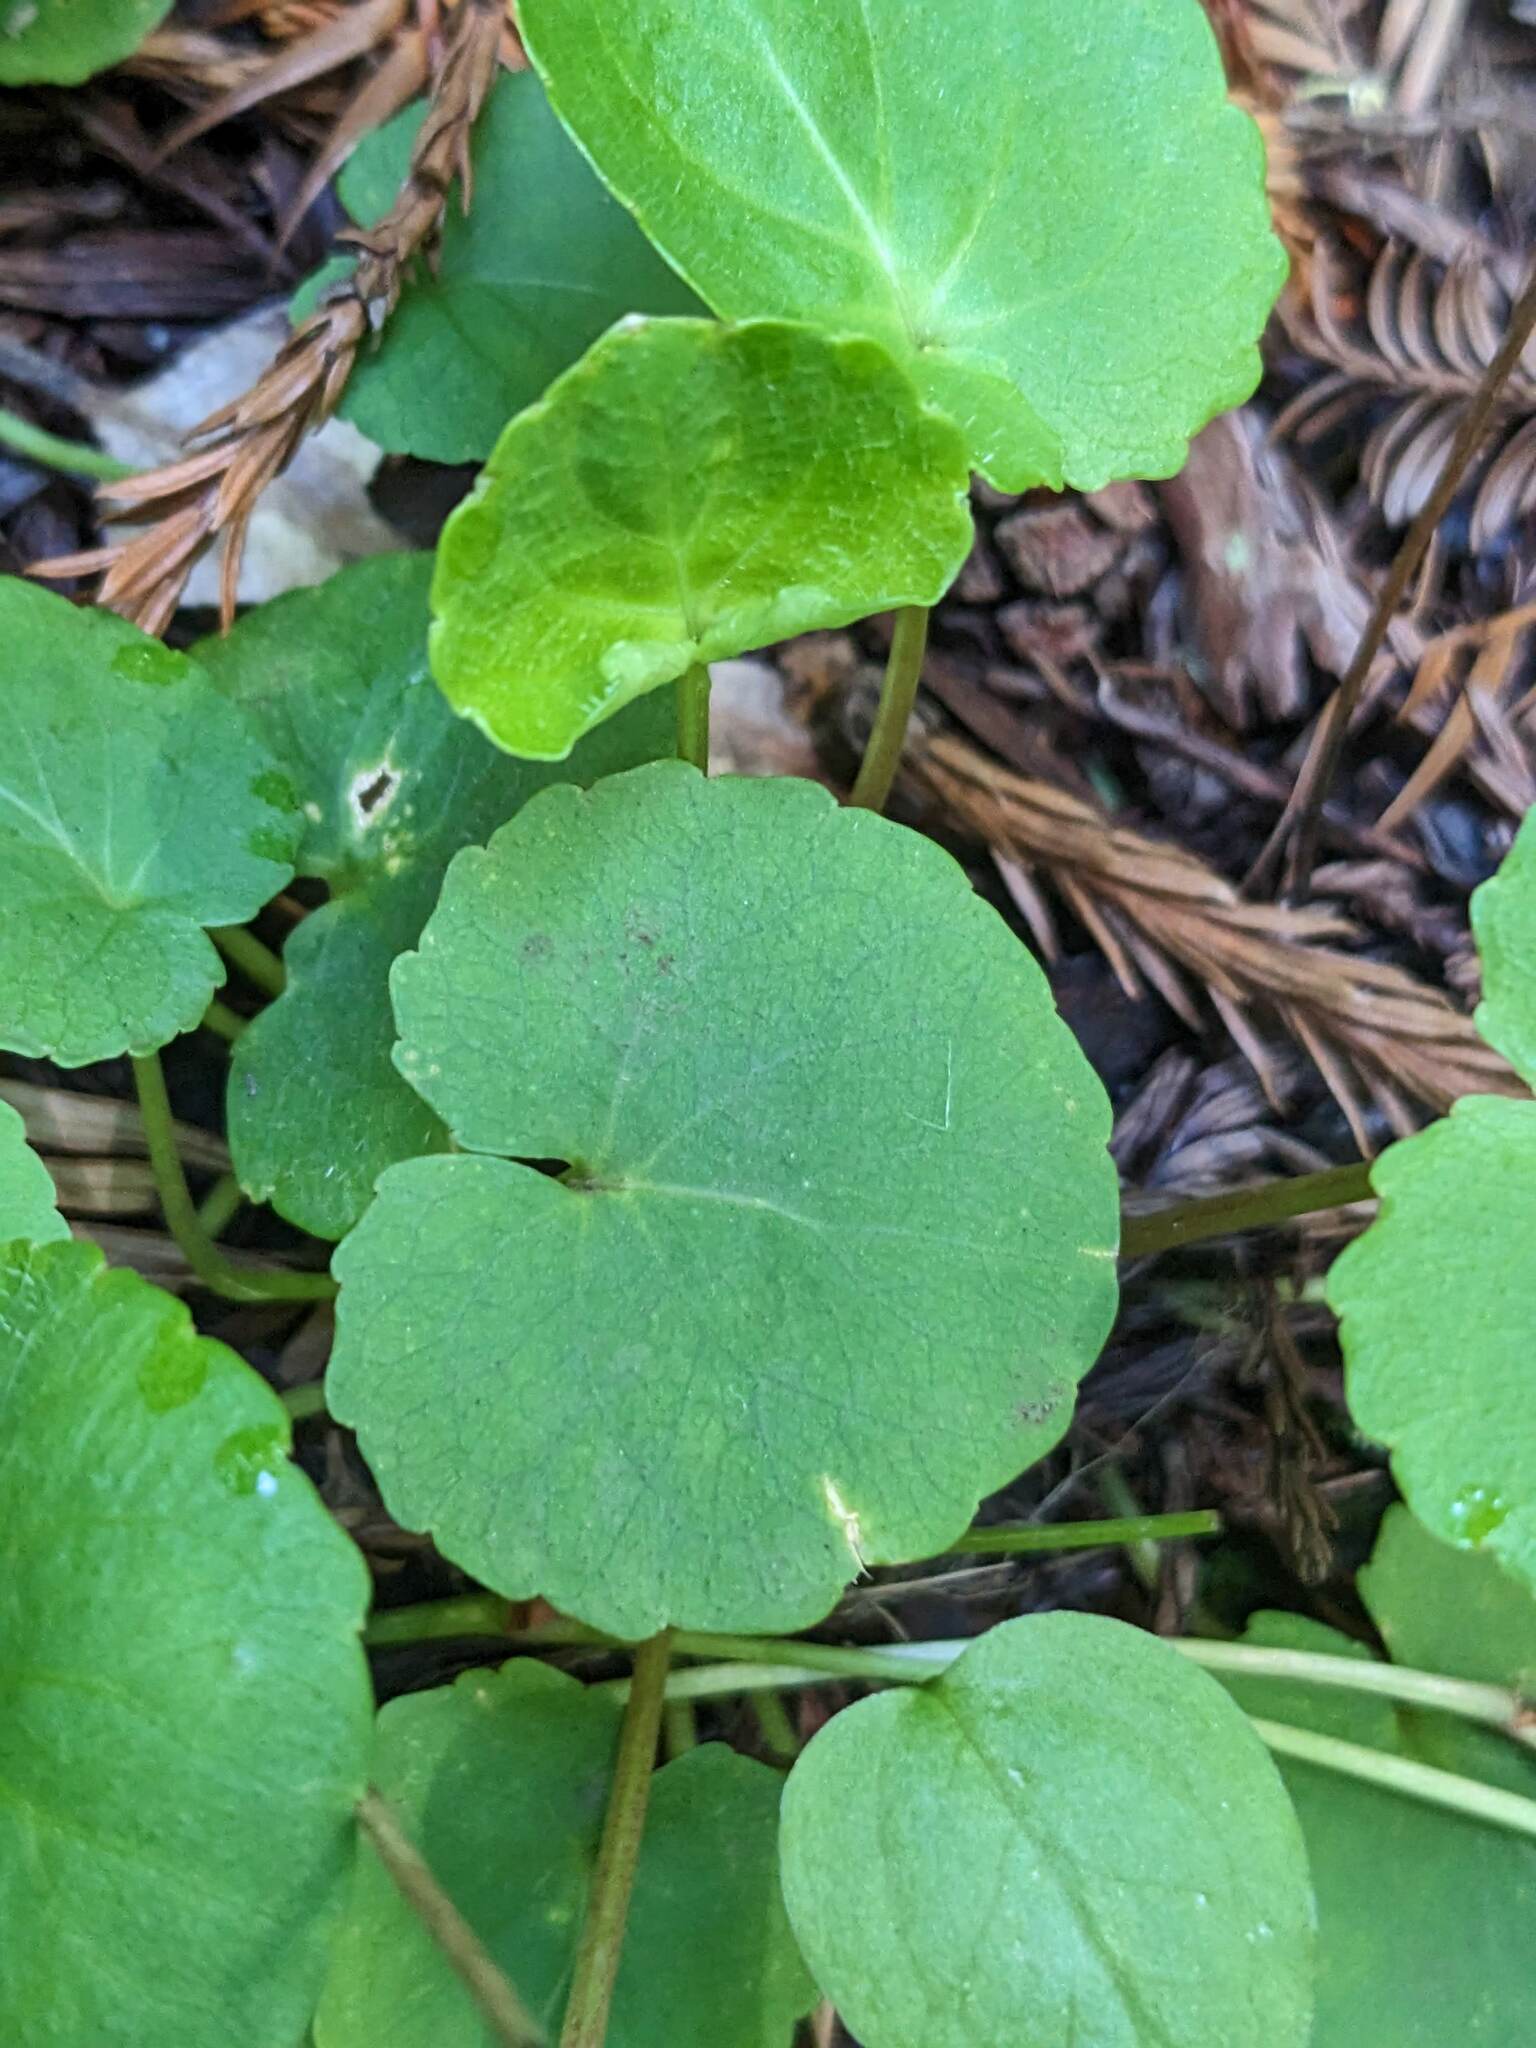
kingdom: Plantae
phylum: Tracheophyta
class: Magnoliopsida
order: Malpighiales
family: Violaceae
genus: Viola
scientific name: Viola sempervirens
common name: Evergreen violet
